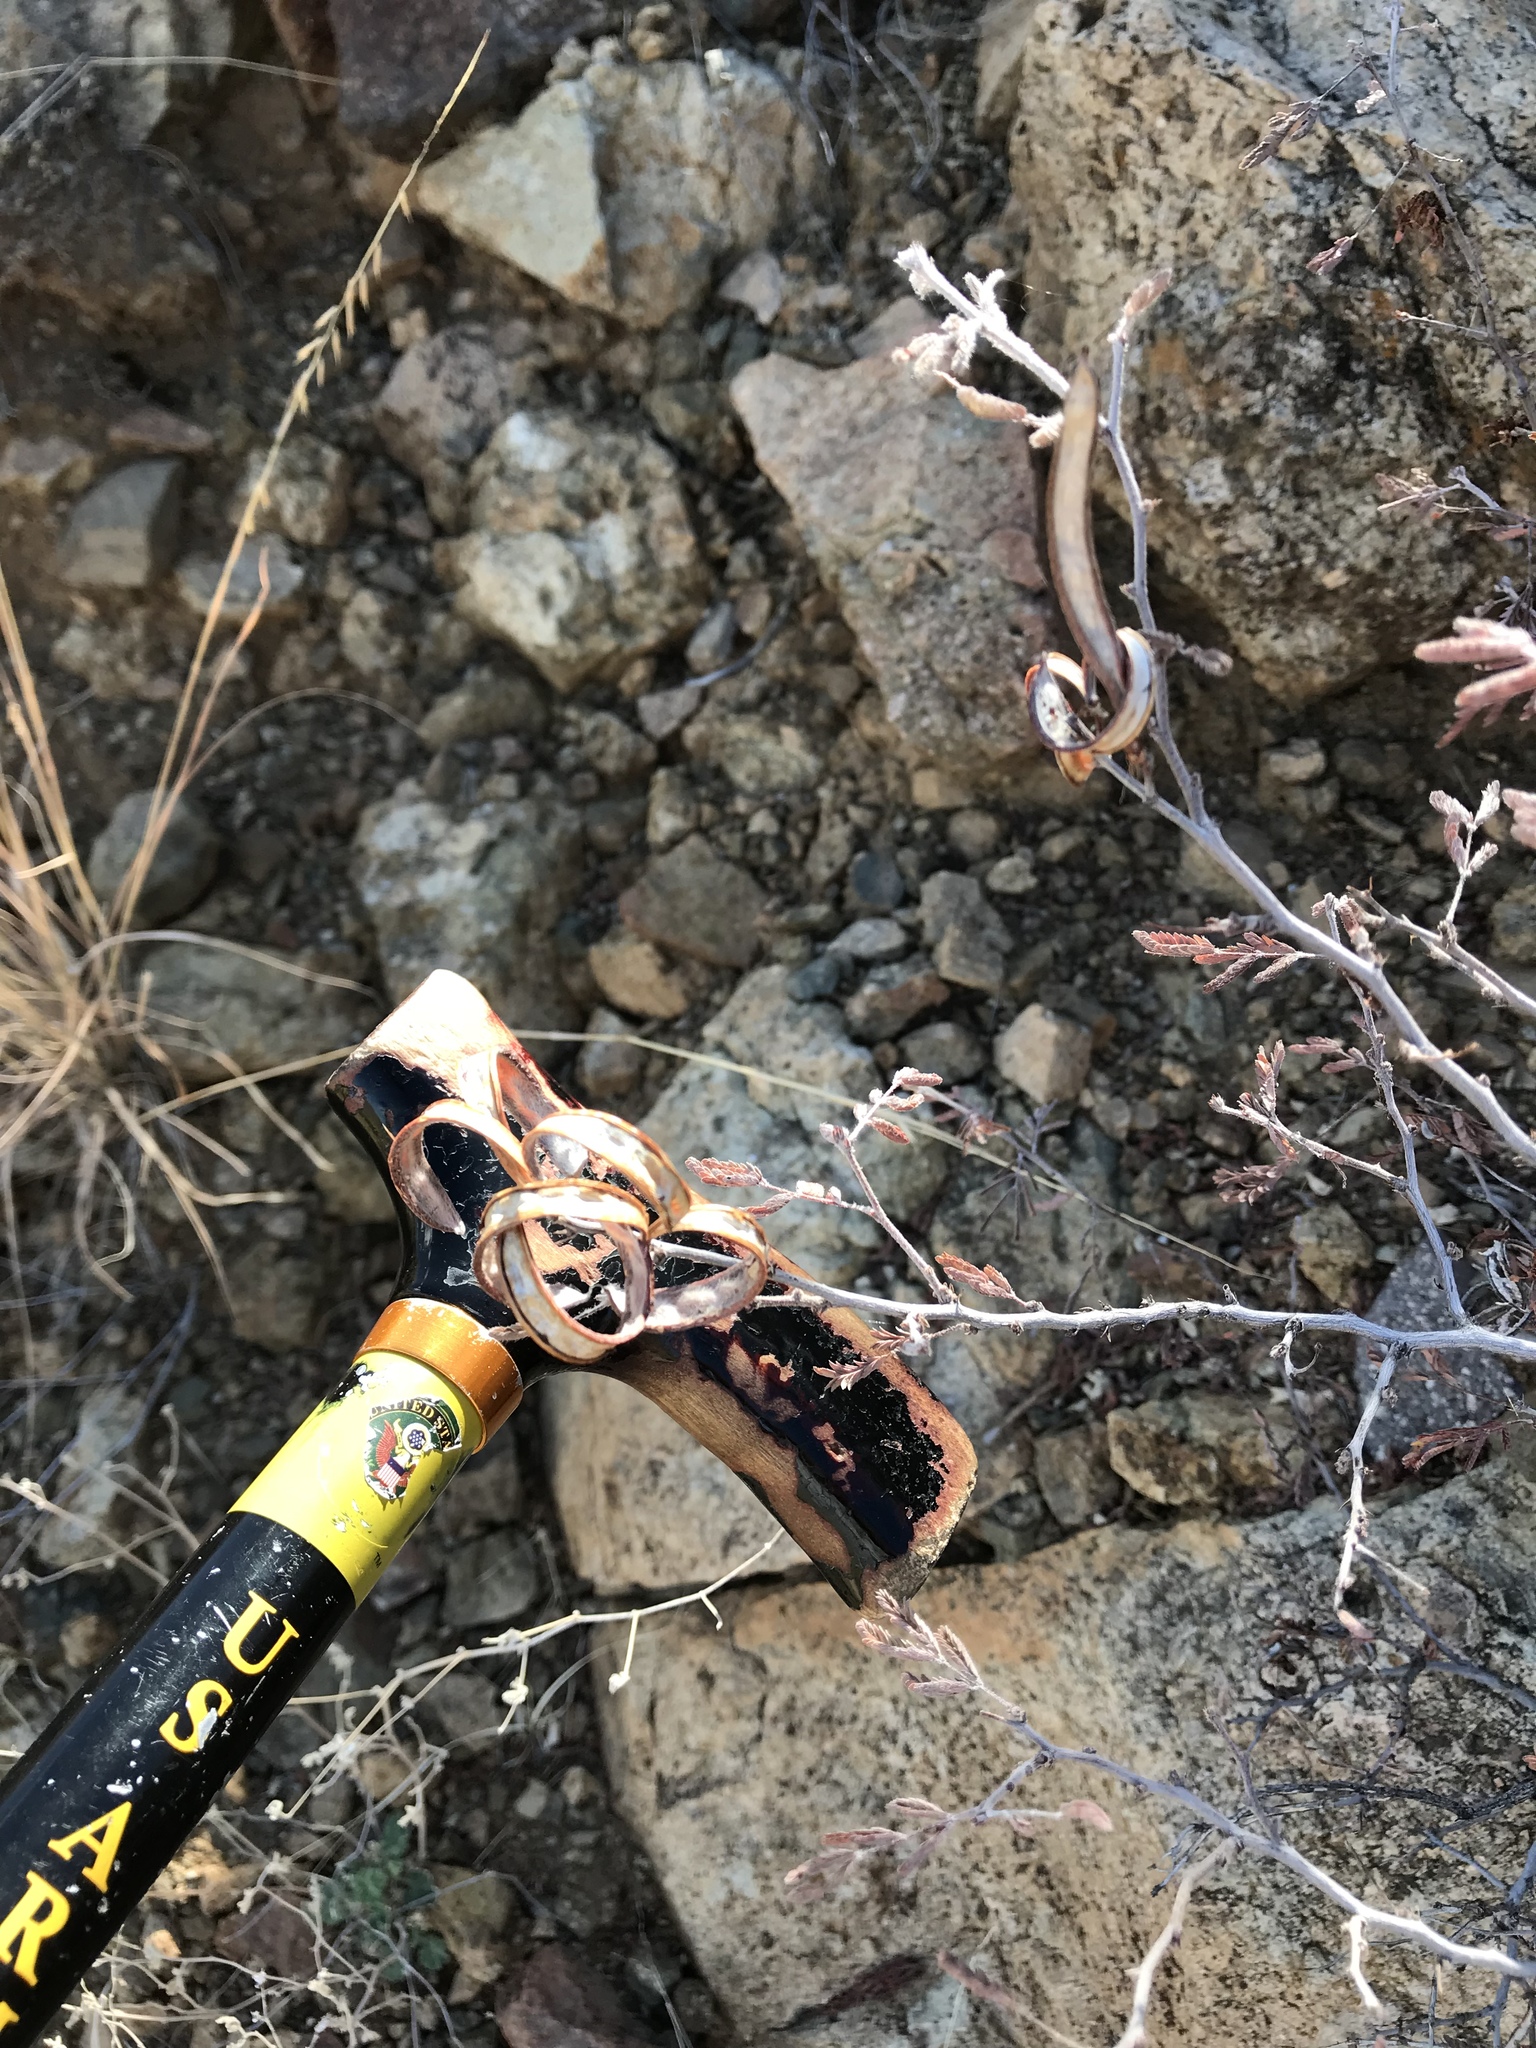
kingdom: Plantae
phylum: Tracheophyta
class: Magnoliopsida
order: Fabales
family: Fabaceae
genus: Calliandra
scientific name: Calliandra eriophylla
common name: Fairy-duster
